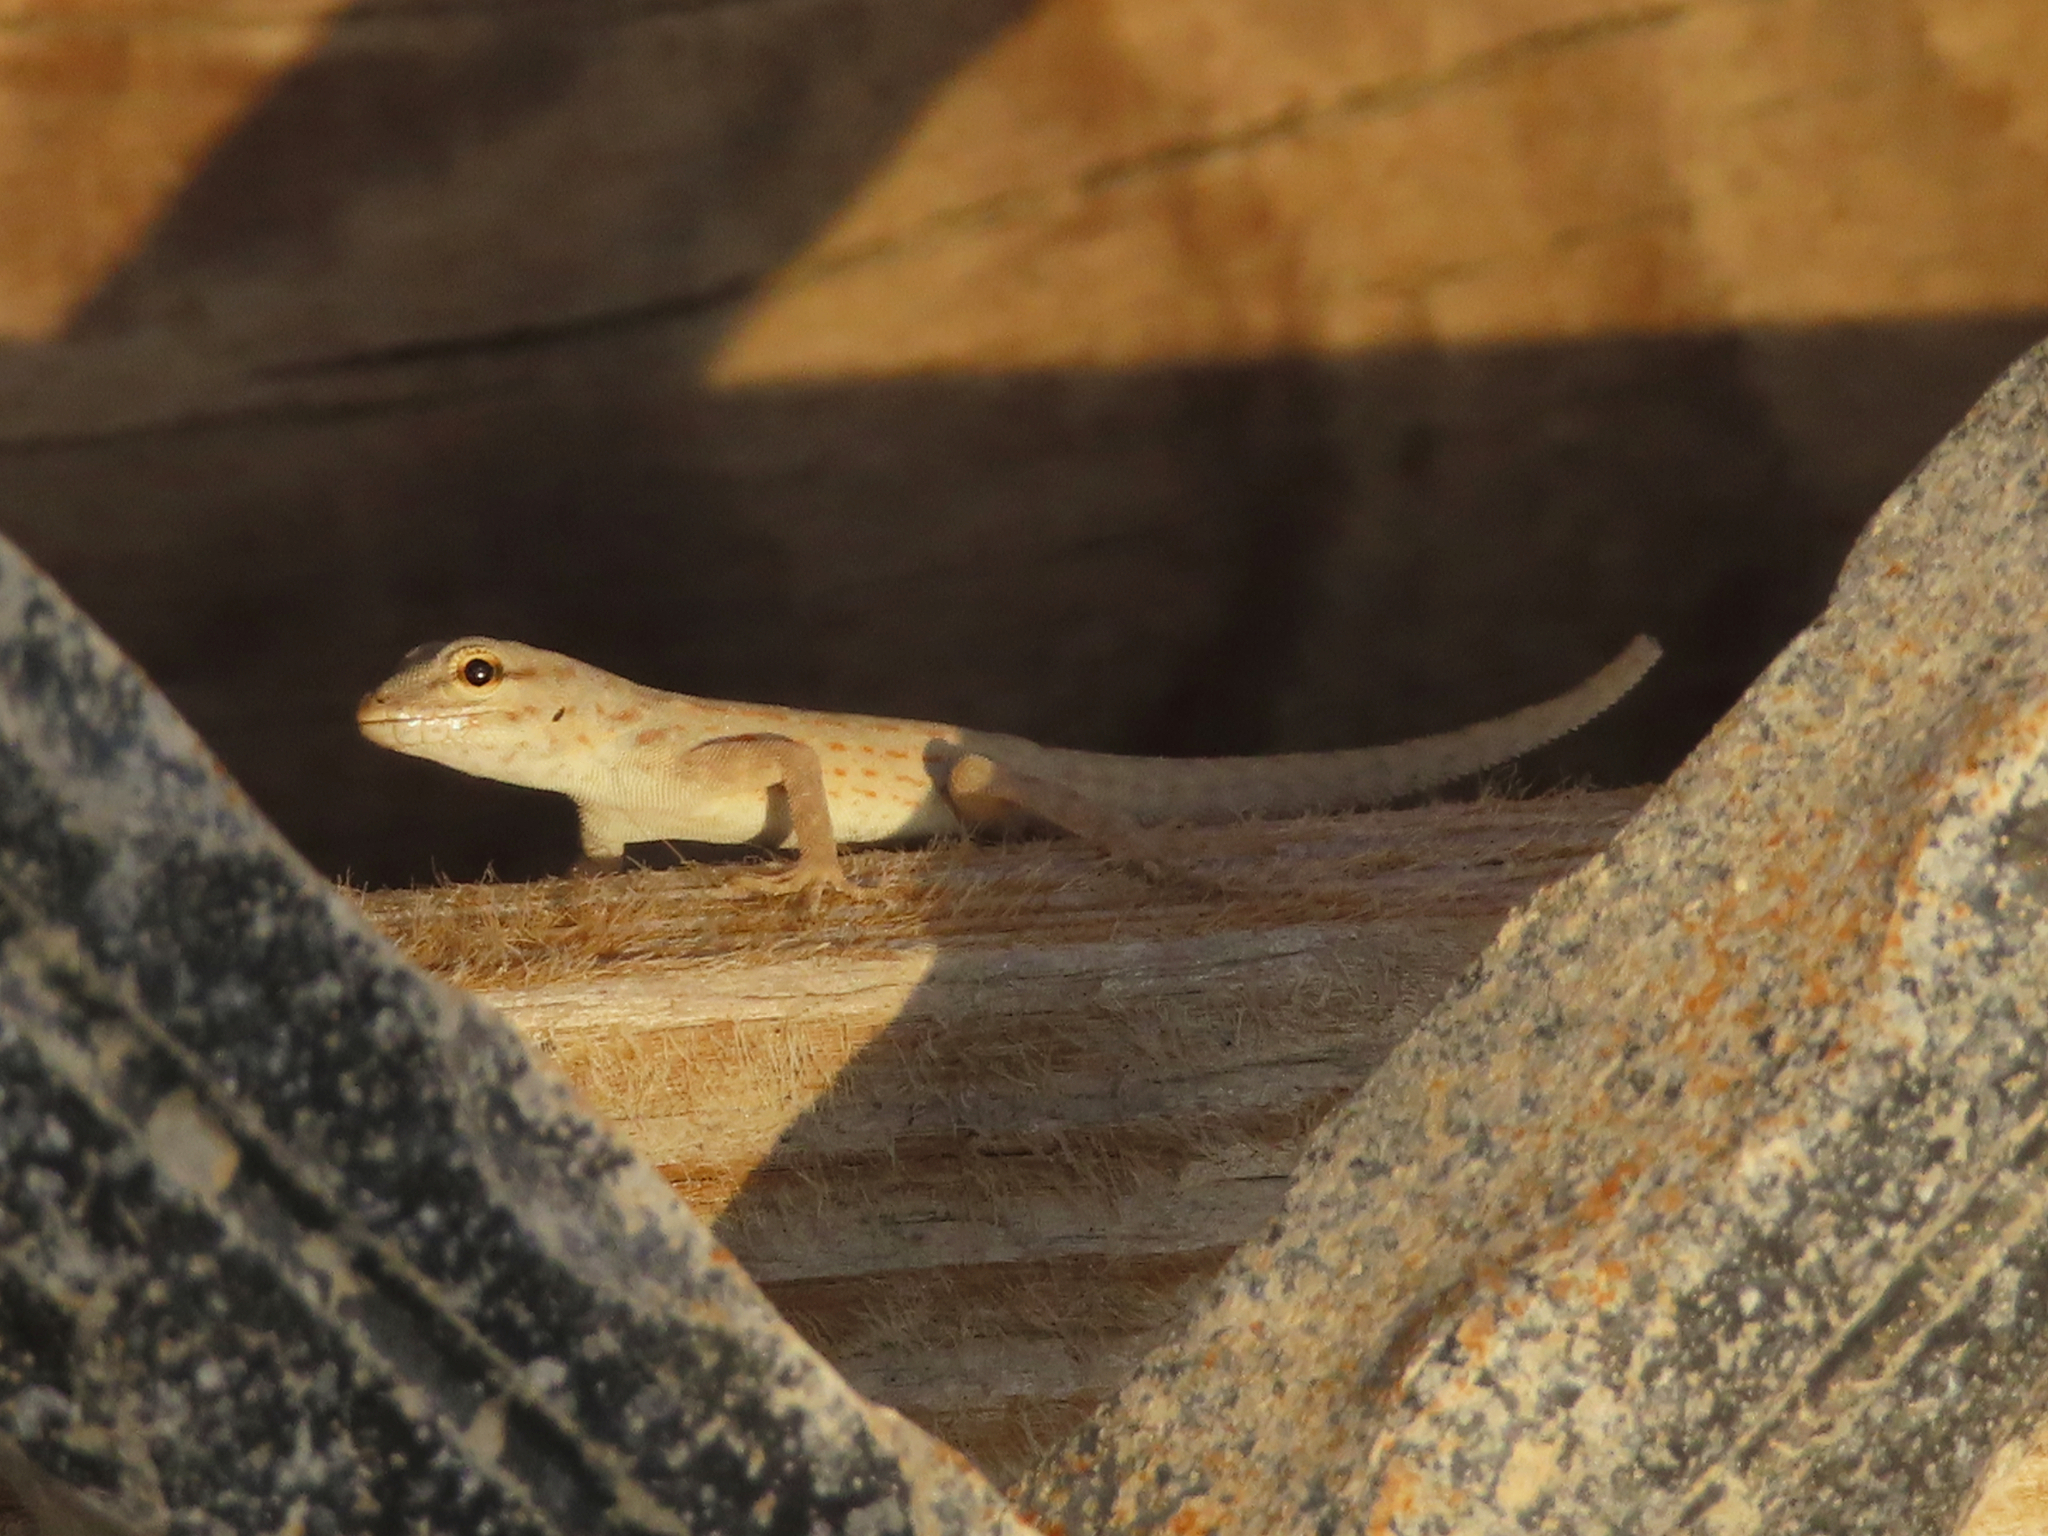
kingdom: Animalia
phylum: Chordata
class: Squamata
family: Sphaerodactylidae
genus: Pristurus
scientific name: Pristurus rupestris
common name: Blanford’s semaphore gecko
